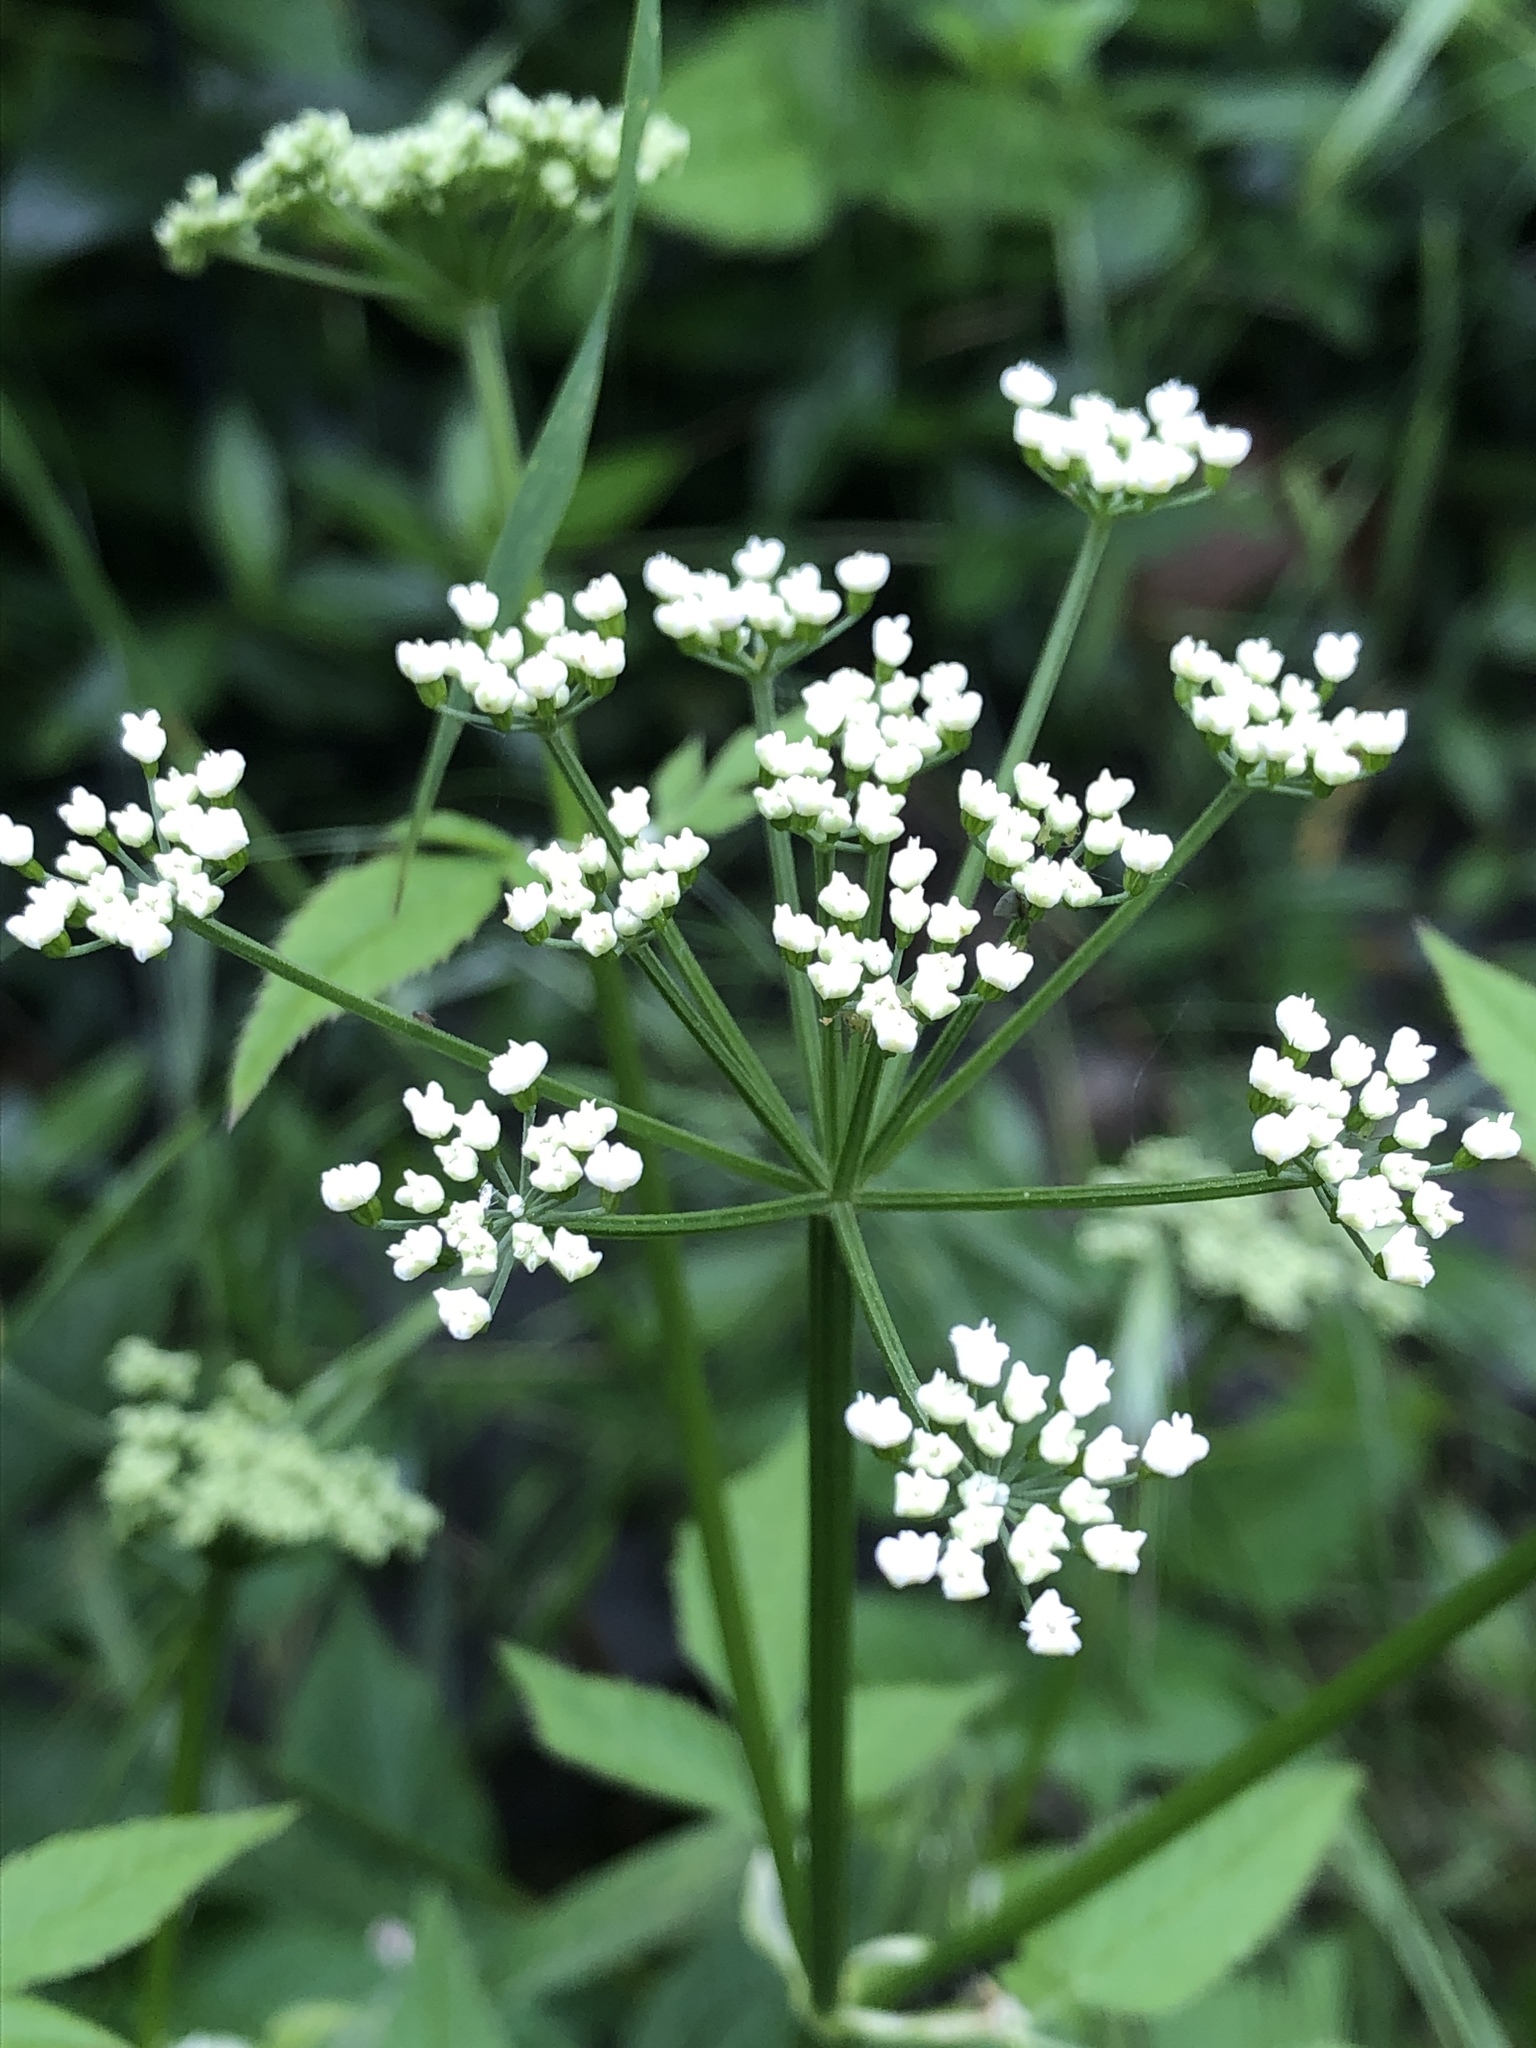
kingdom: Plantae
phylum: Tracheophyta
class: Magnoliopsida
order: Apiales
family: Apiaceae
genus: Aegopodium
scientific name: Aegopodium podagraria
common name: Ground-elder
